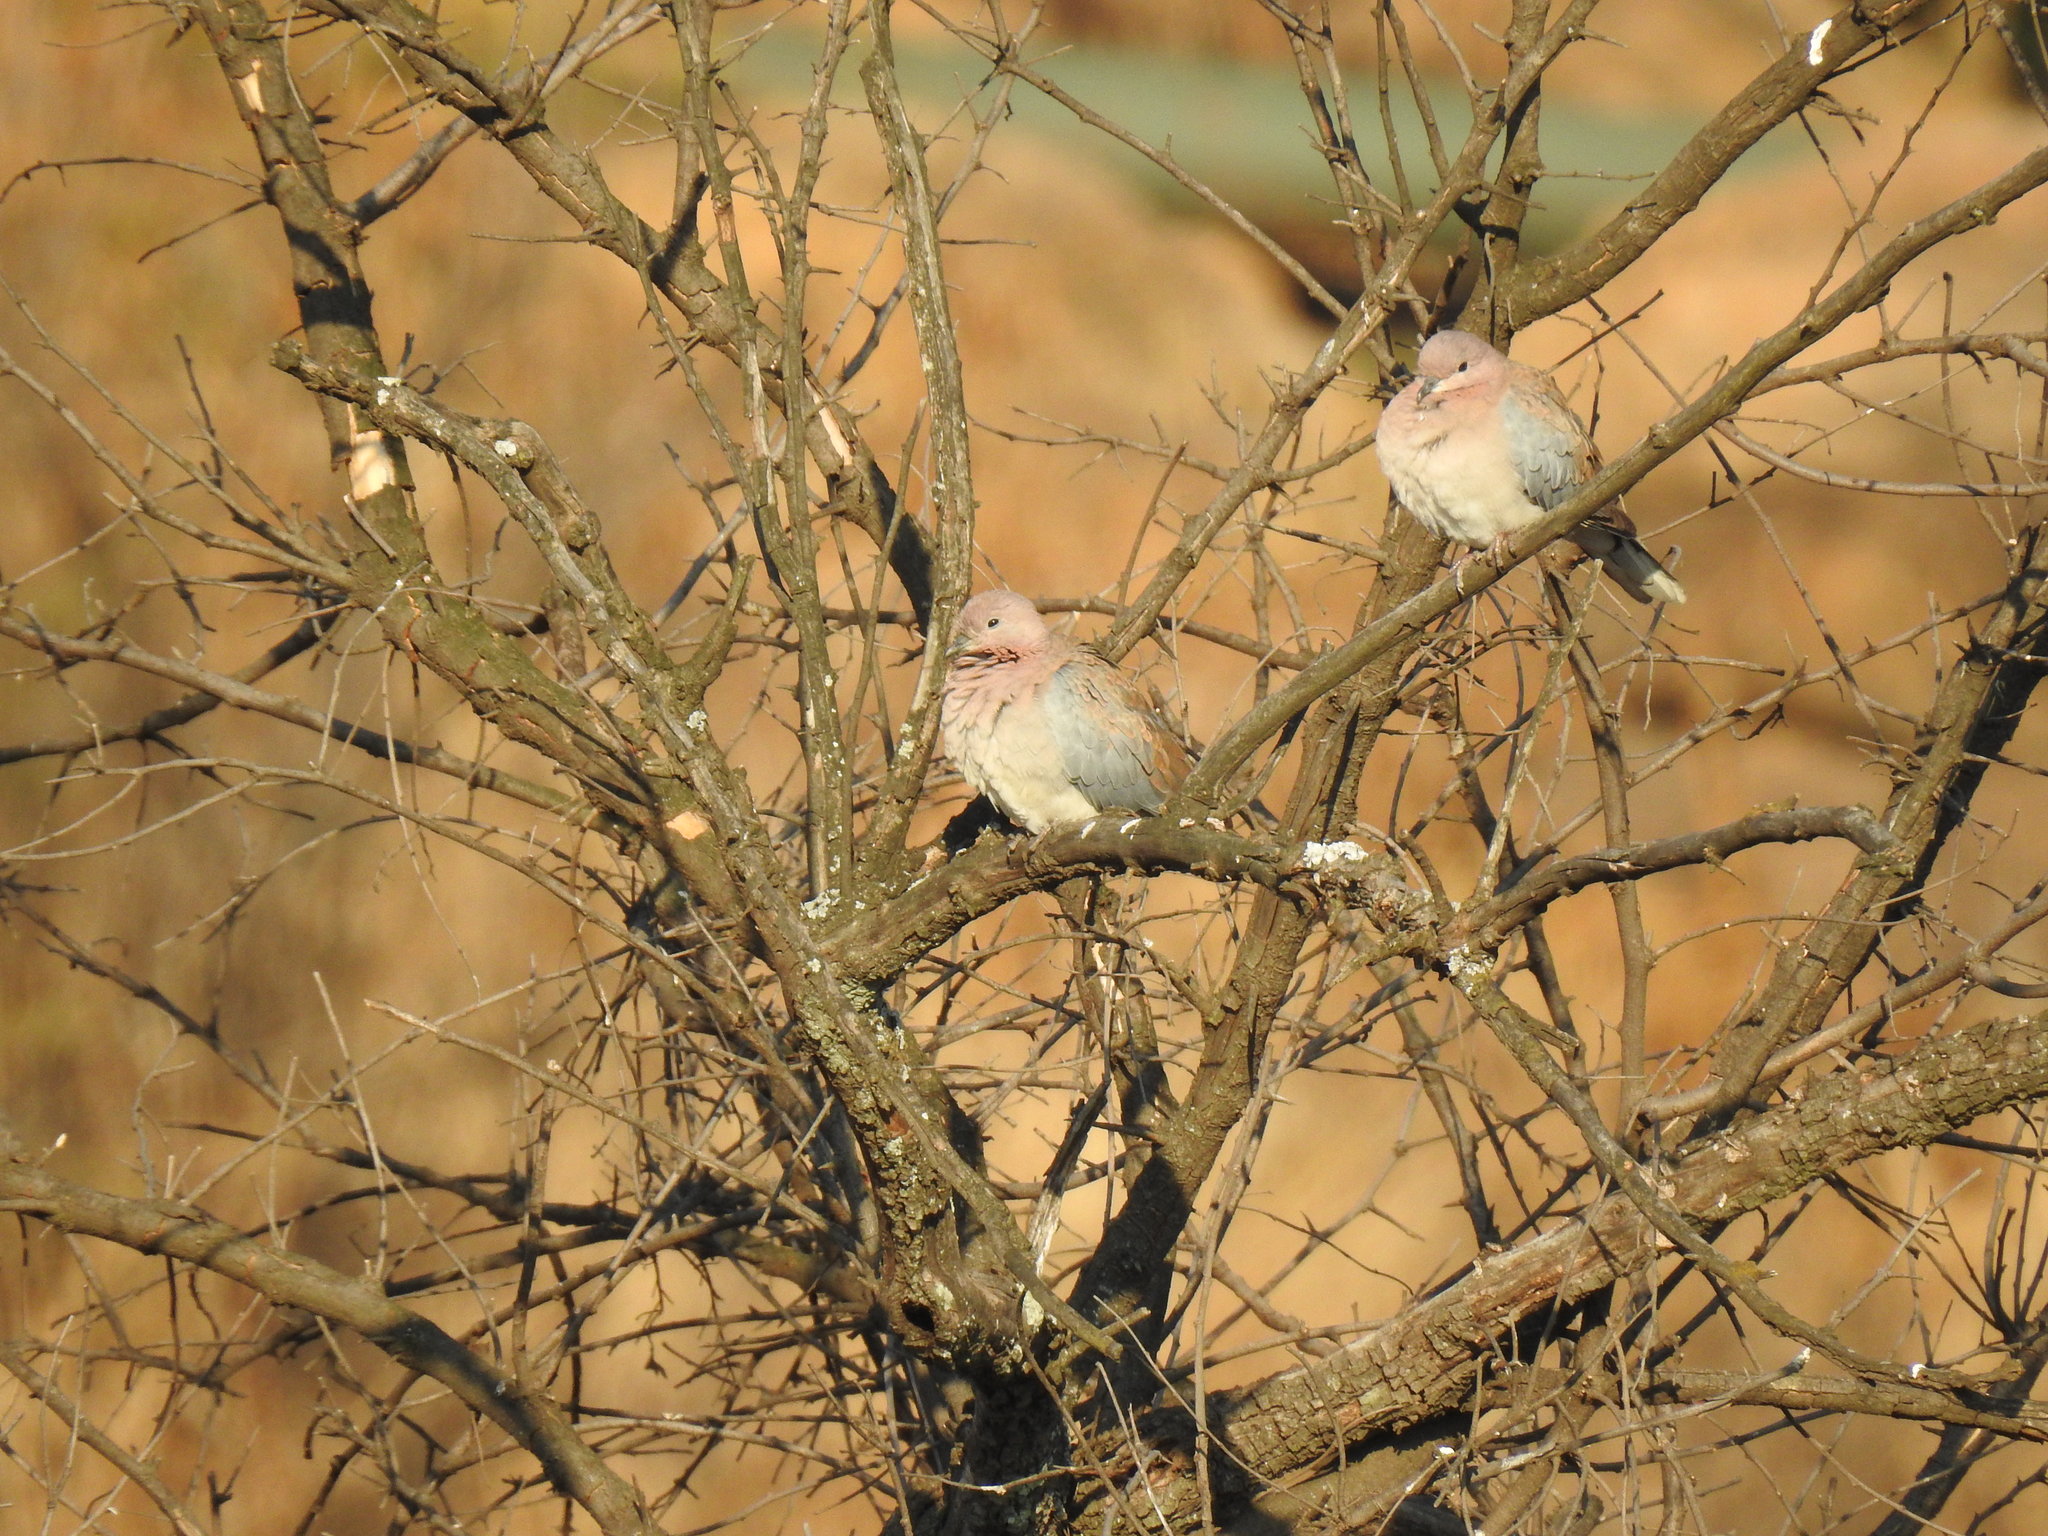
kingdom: Animalia
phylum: Chordata
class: Aves
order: Columbiformes
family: Columbidae
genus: Spilopelia
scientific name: Spilopelia senegalensis
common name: Laughing dove
